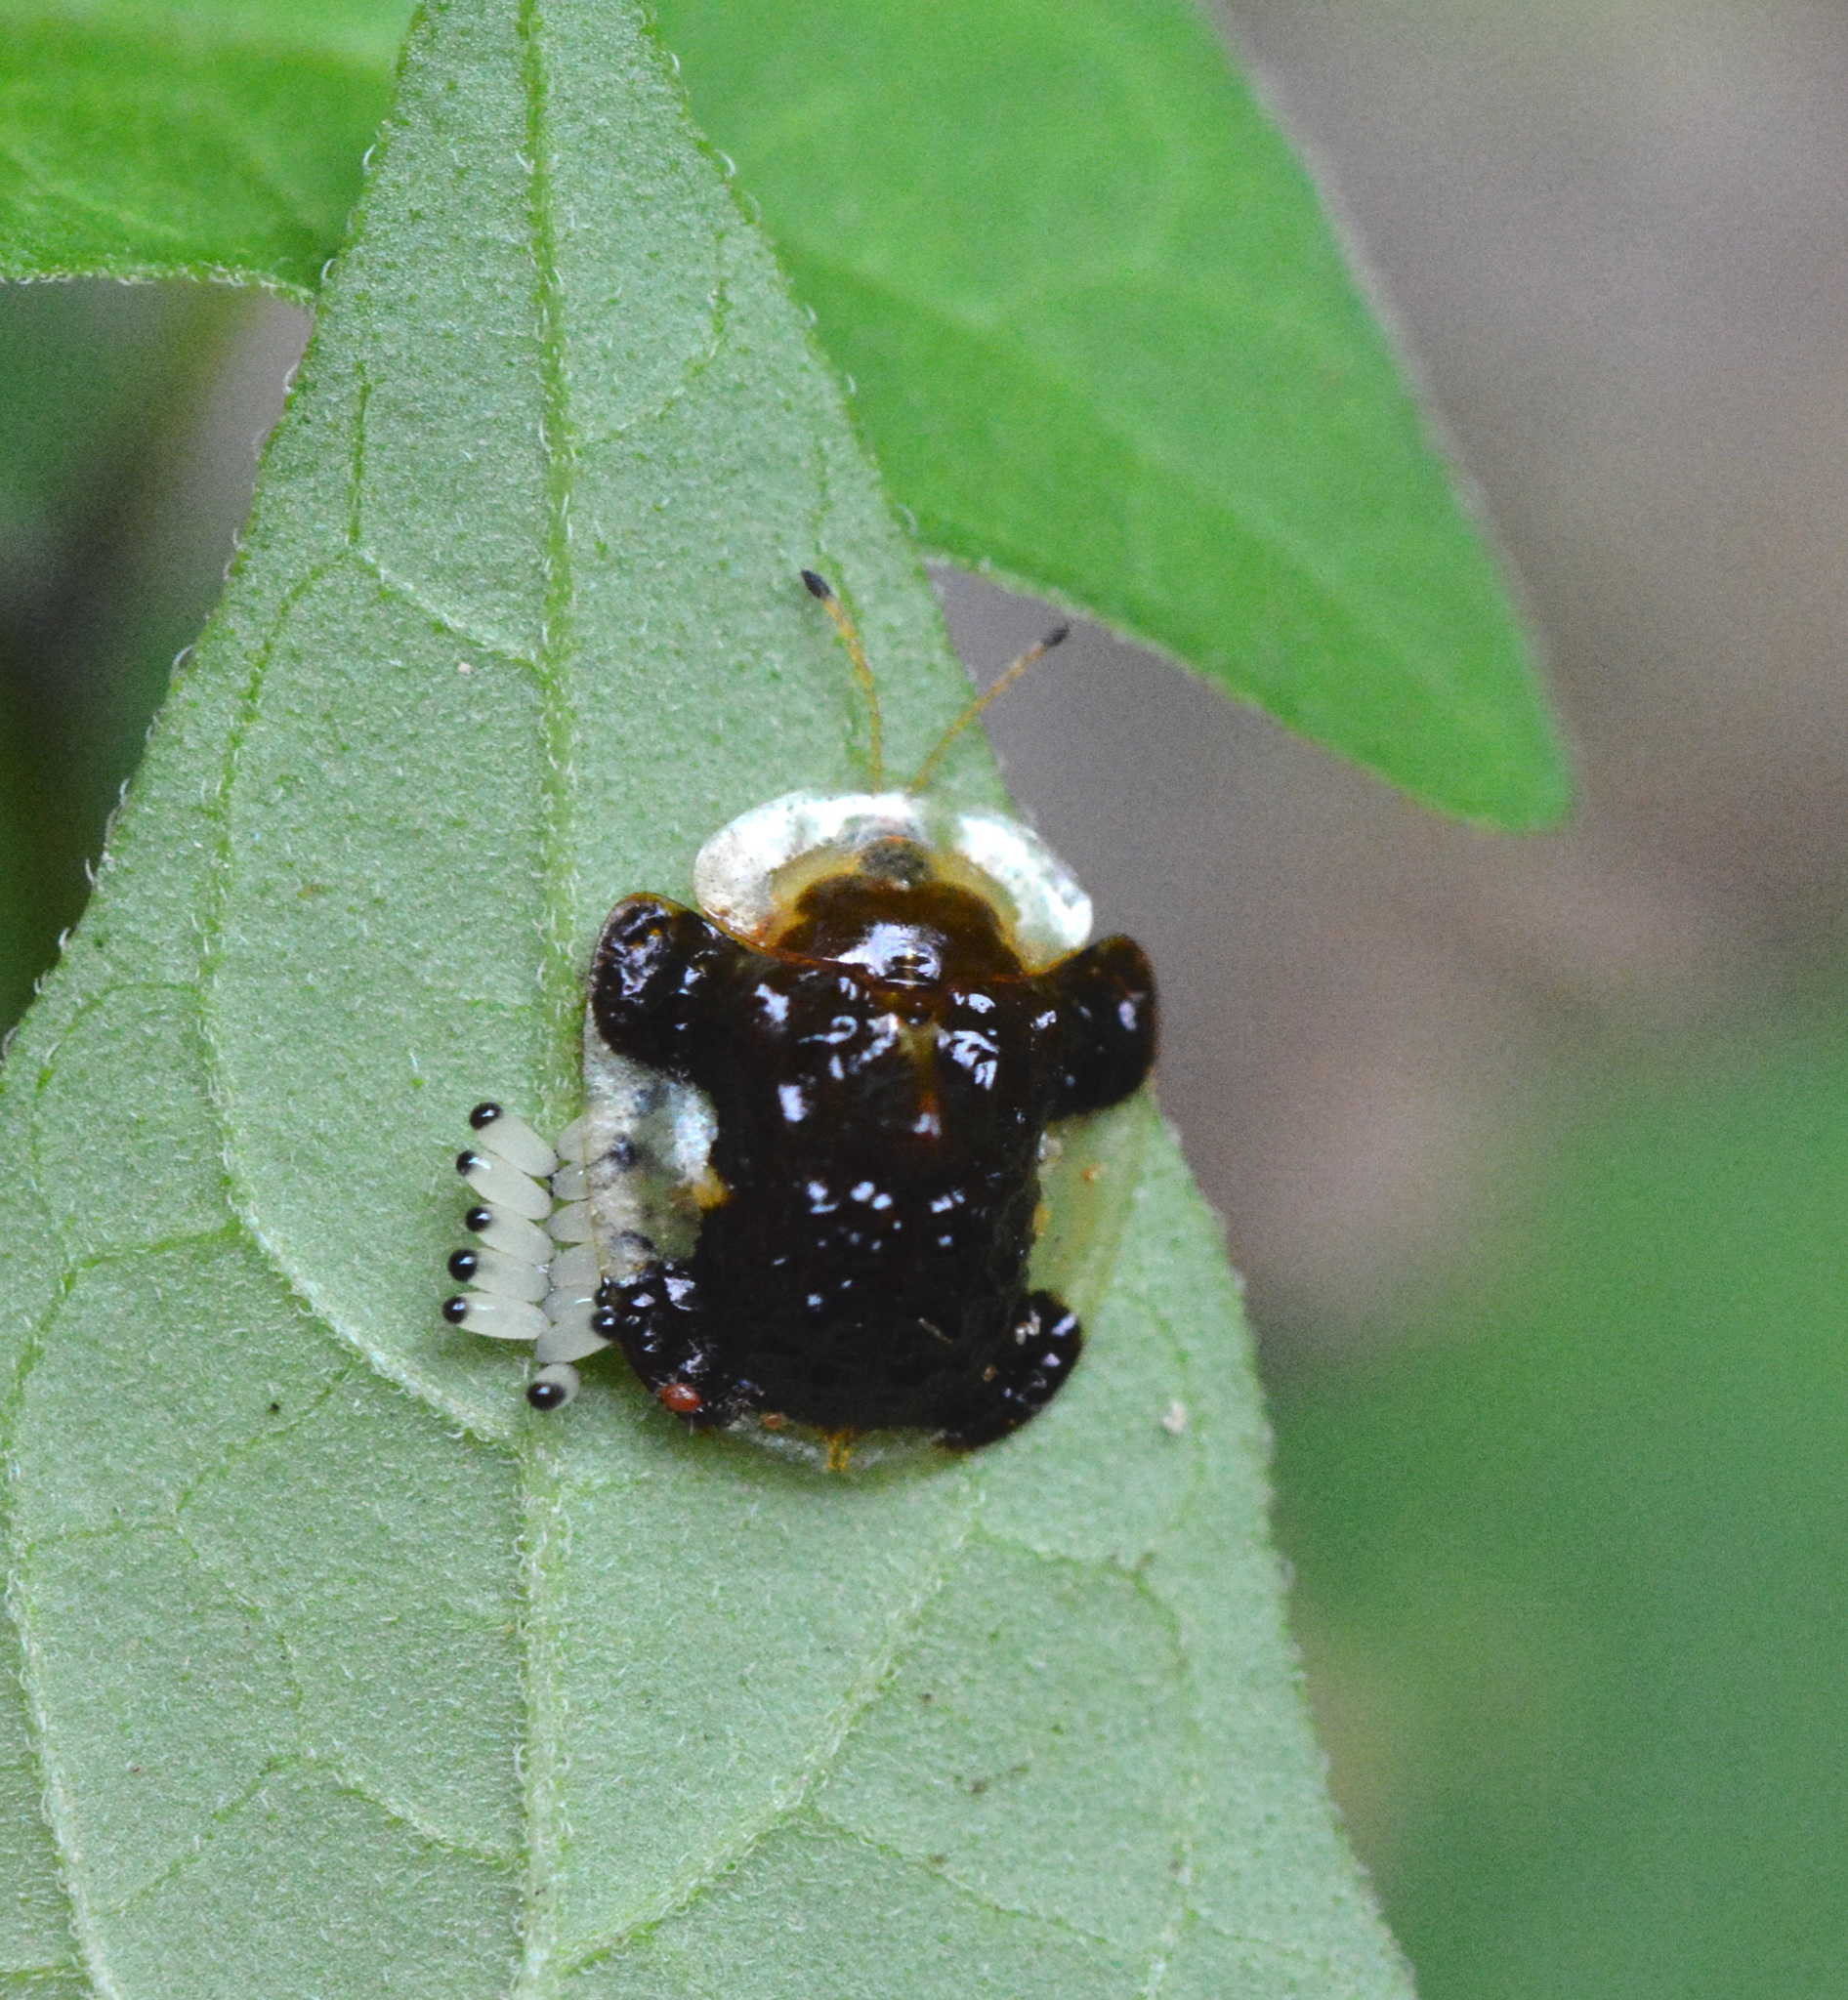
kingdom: Animalia
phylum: Arthropoda
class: Insecta
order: Coleoptera
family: Chrysomelidae
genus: Helocassis
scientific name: Helocassis clavata
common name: Clavate tortoise beetle
